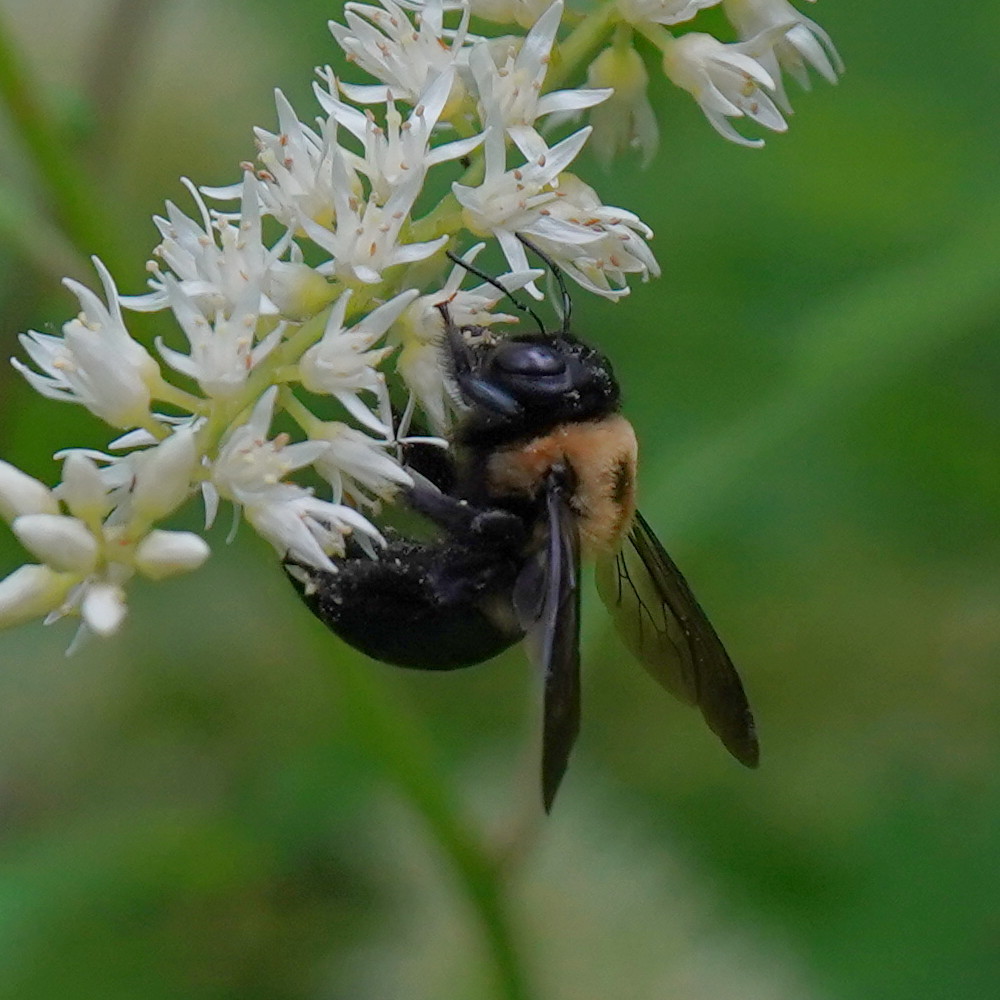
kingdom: Animalia
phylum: Arthropoda
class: Insecta
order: Hymenoptera
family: Apidae
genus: Xylocopa
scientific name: Xylocopa virginica
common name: Carpenter bee
